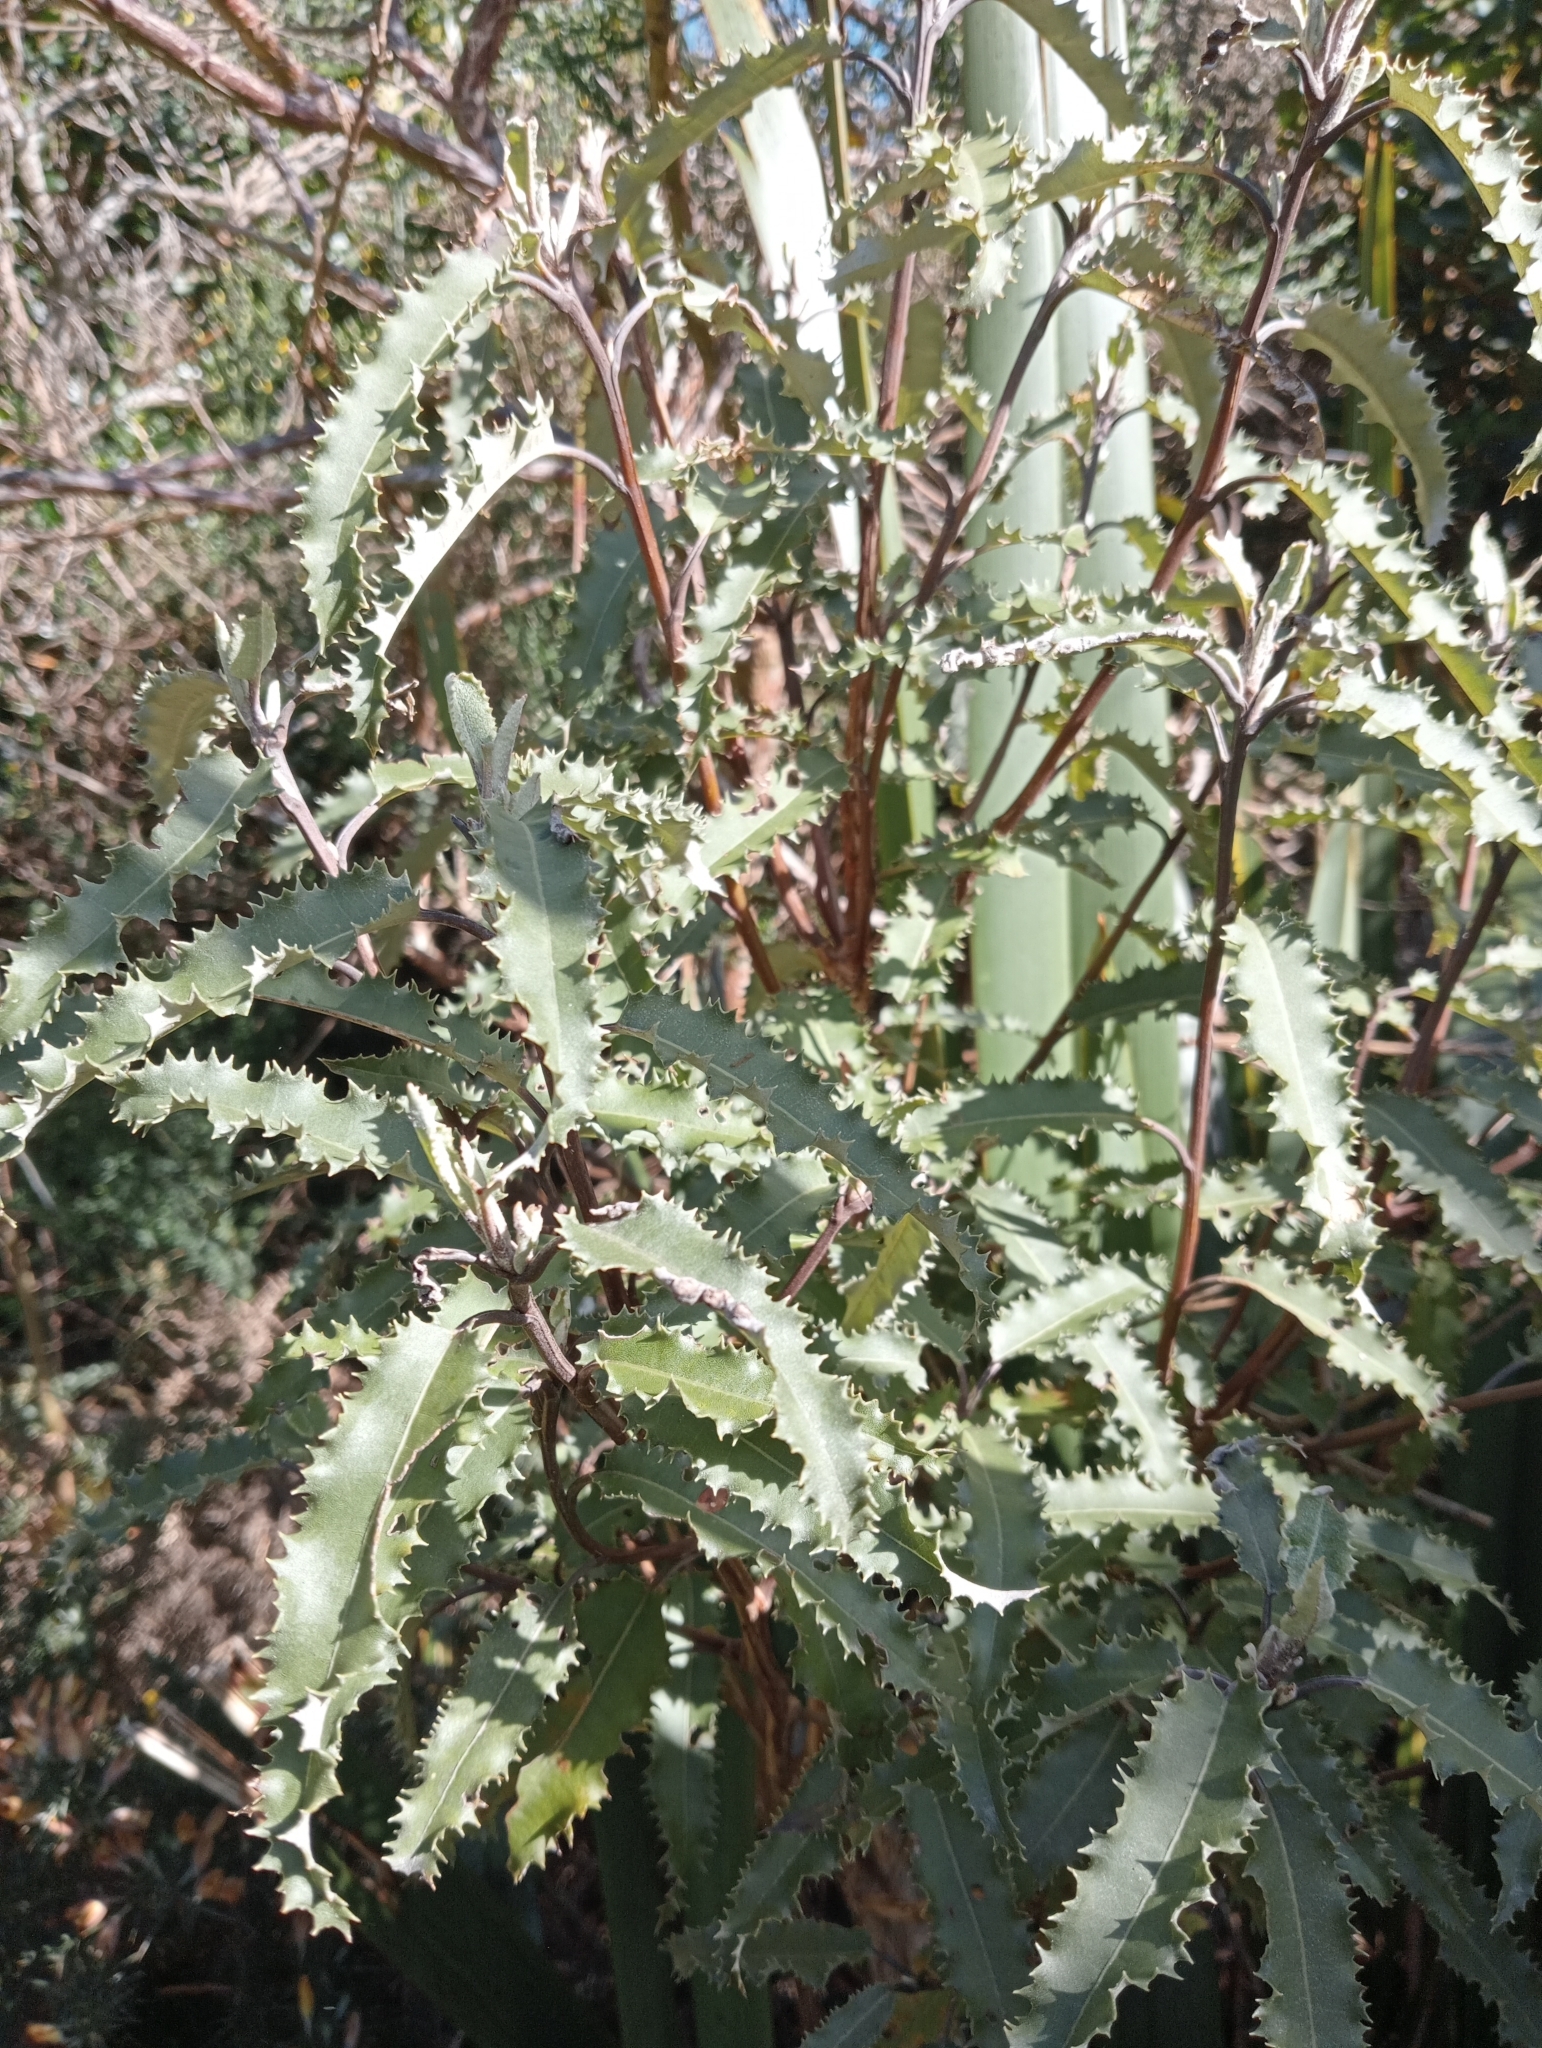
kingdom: Plantae
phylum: Tracheophyta
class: Magnoliopsida
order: Asterales
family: Asteraceae
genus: Olearia
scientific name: Olearia ilicifolia
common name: Maori-holly
